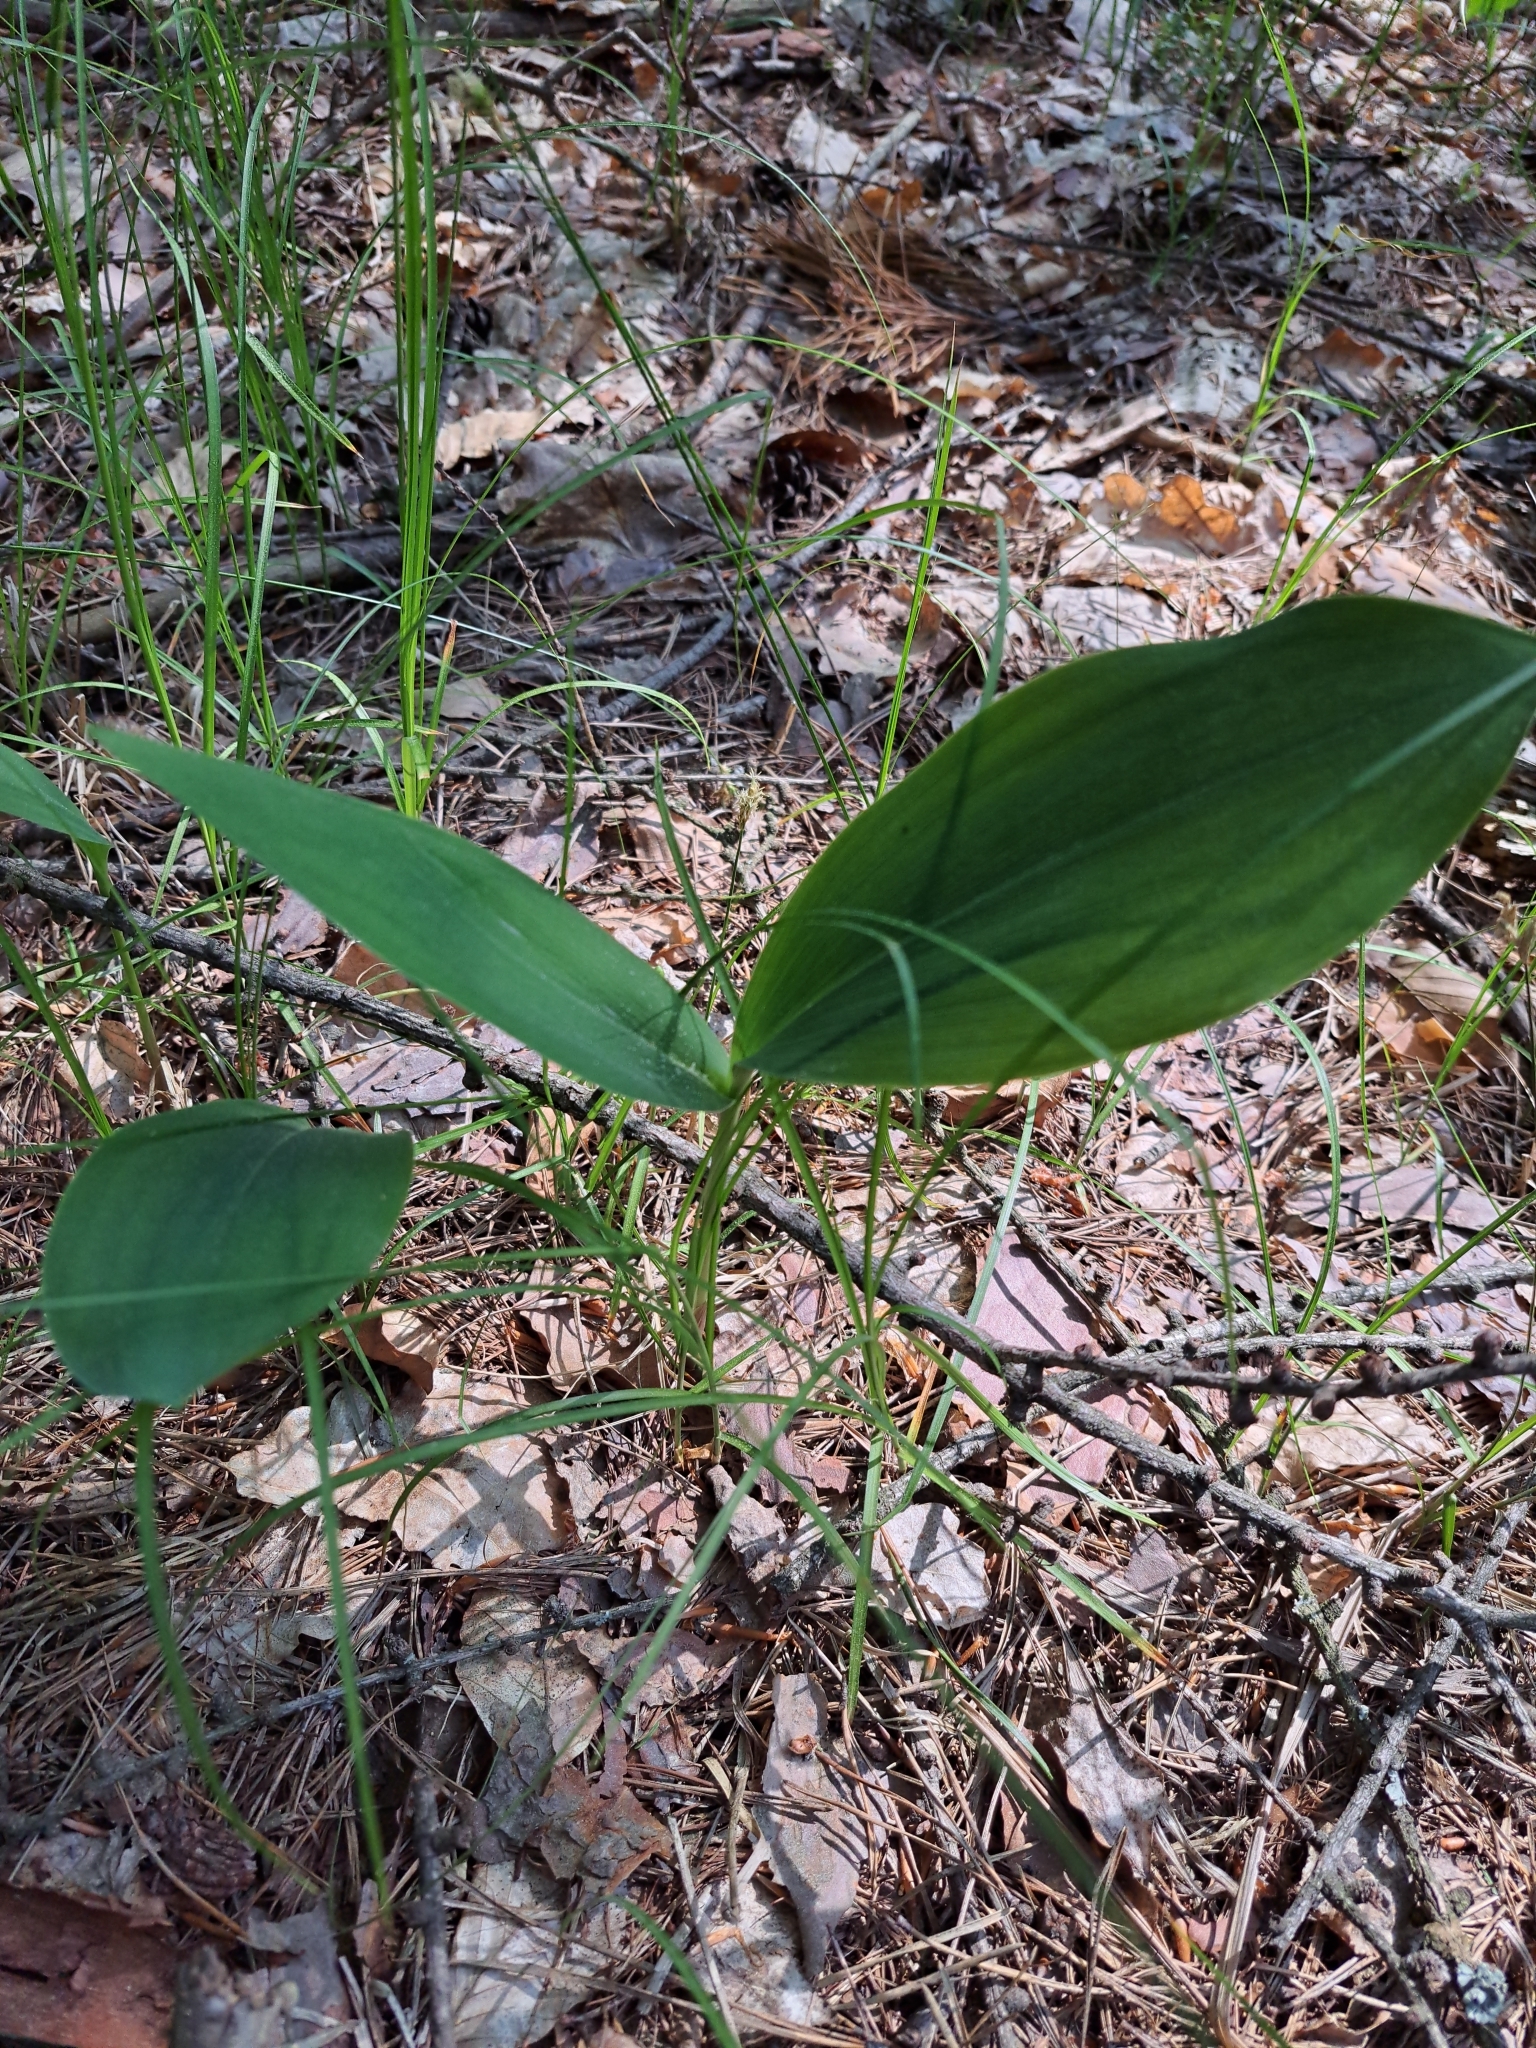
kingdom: Plantae
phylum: Tracheophyta
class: Liliopsida
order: Asparagales
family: Asparagaceae
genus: Convallaria
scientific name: Convallaria majalis
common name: Lily-of-the-valley
